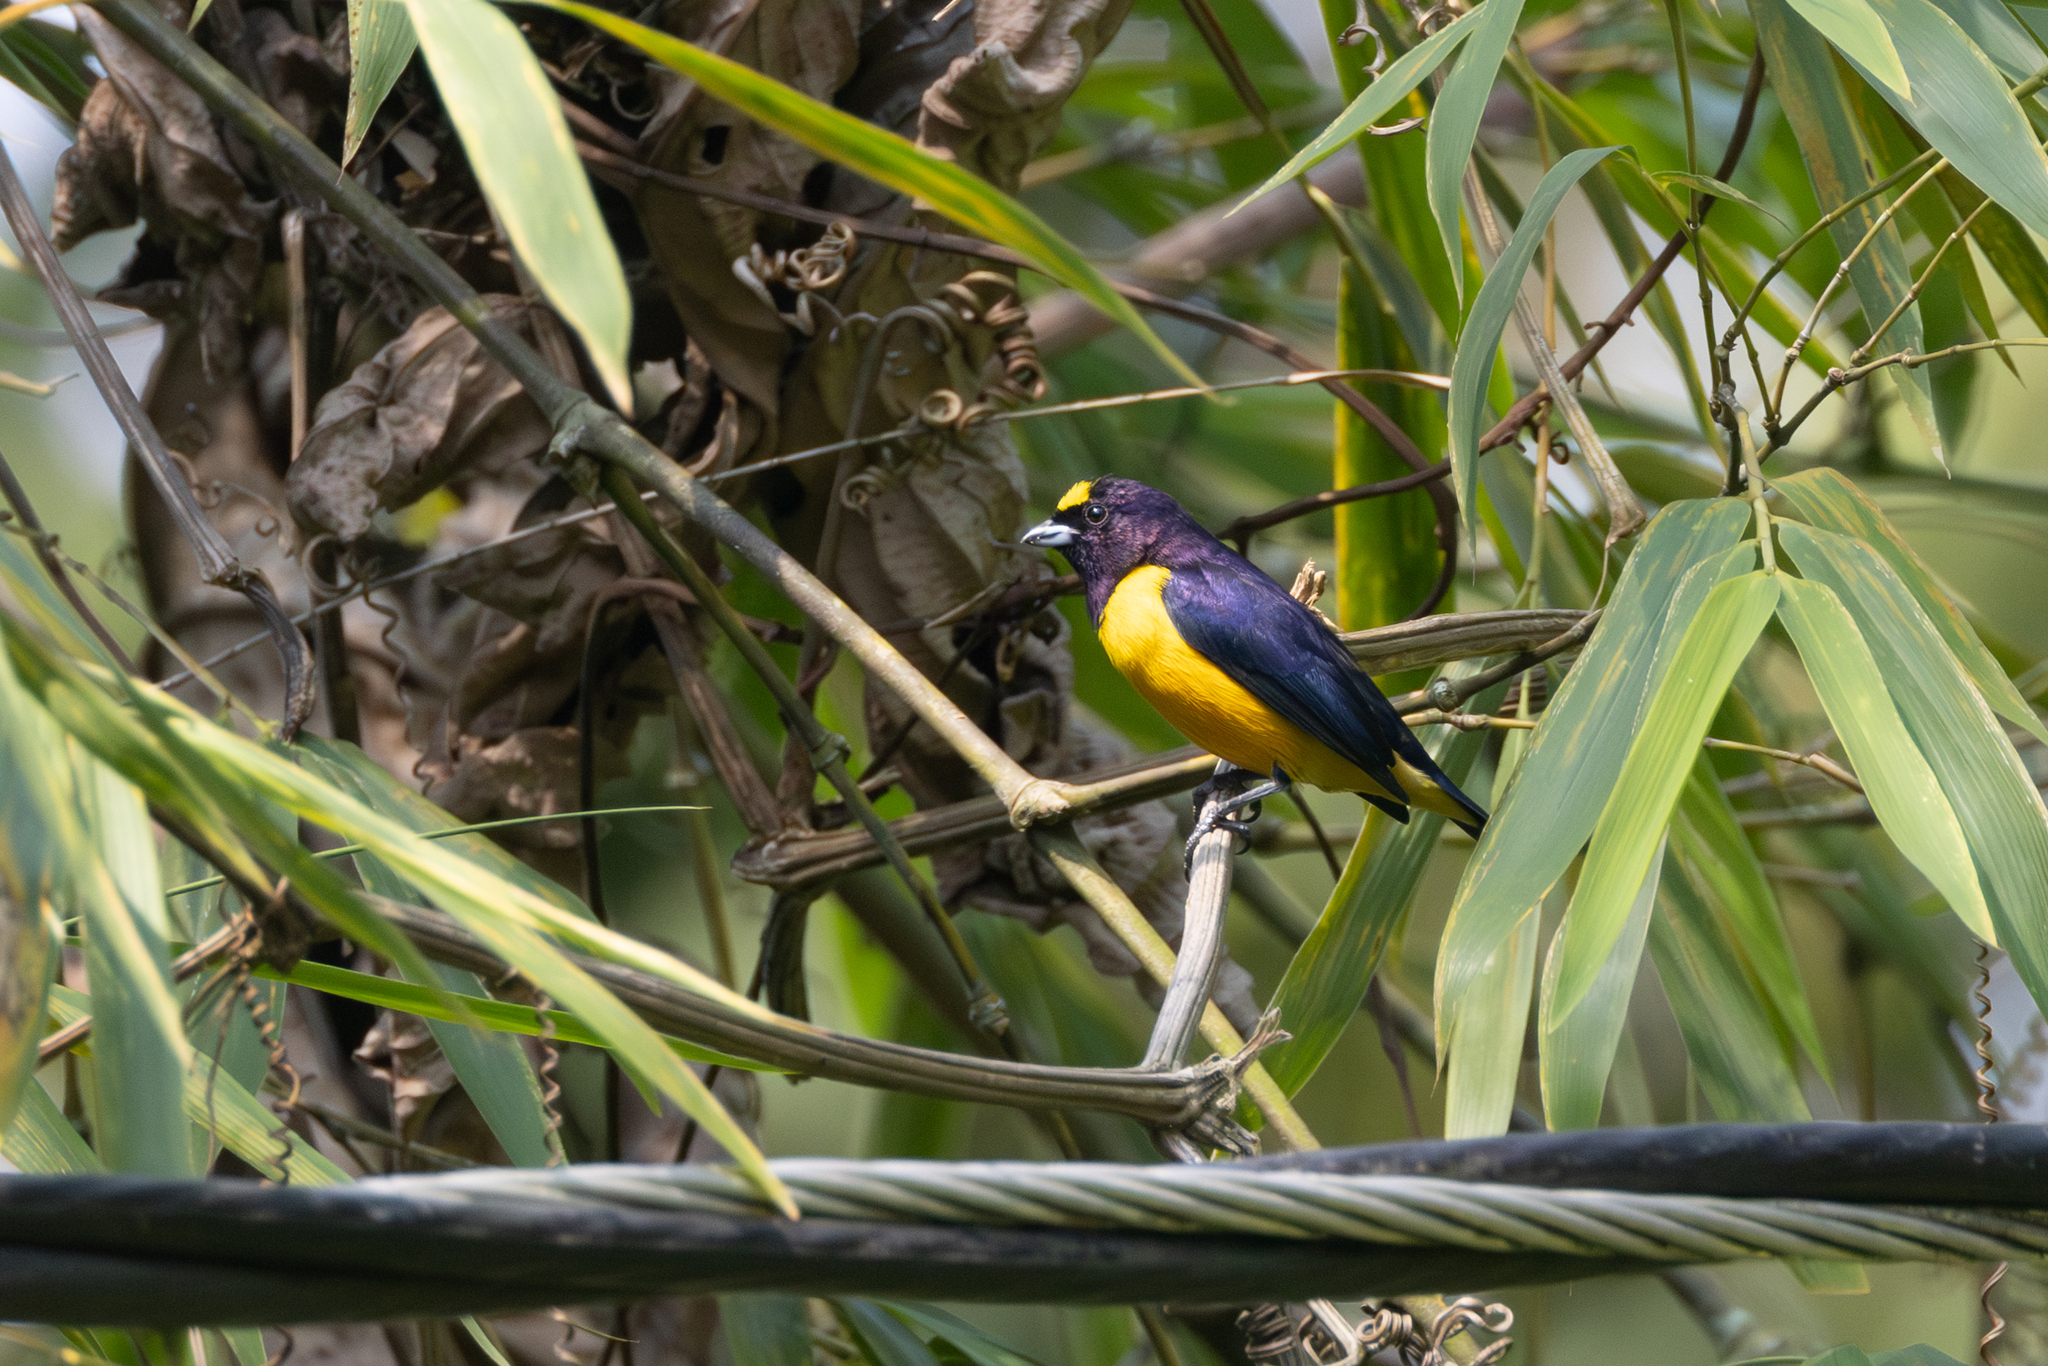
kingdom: Animalia
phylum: Chordata
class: Aves
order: Passeriformes
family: Fringillidae
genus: Euphonia
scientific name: Euphonia concinna
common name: Velvet-fronted euphonia
